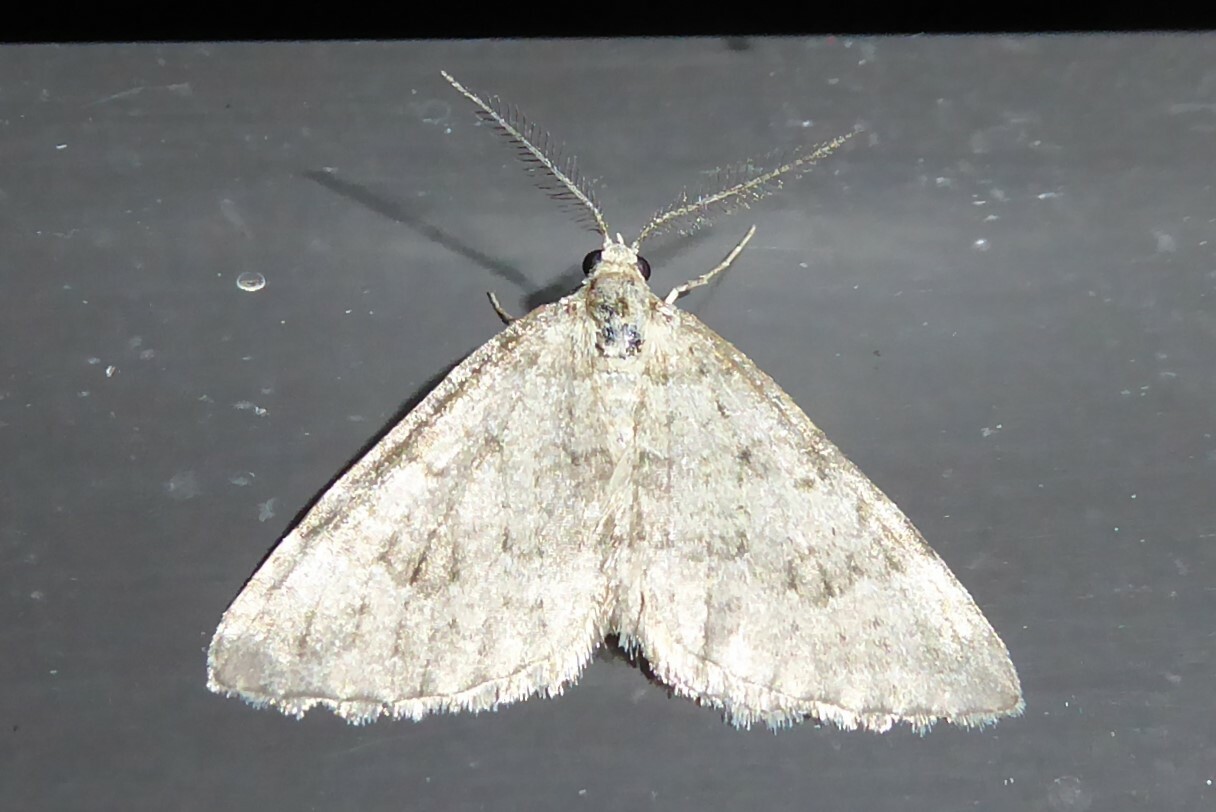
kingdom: Animalia
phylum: Arthropoda
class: Insecta
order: Lepidoptera
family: Geometridae
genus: Helastia
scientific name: Helastia corcularia
